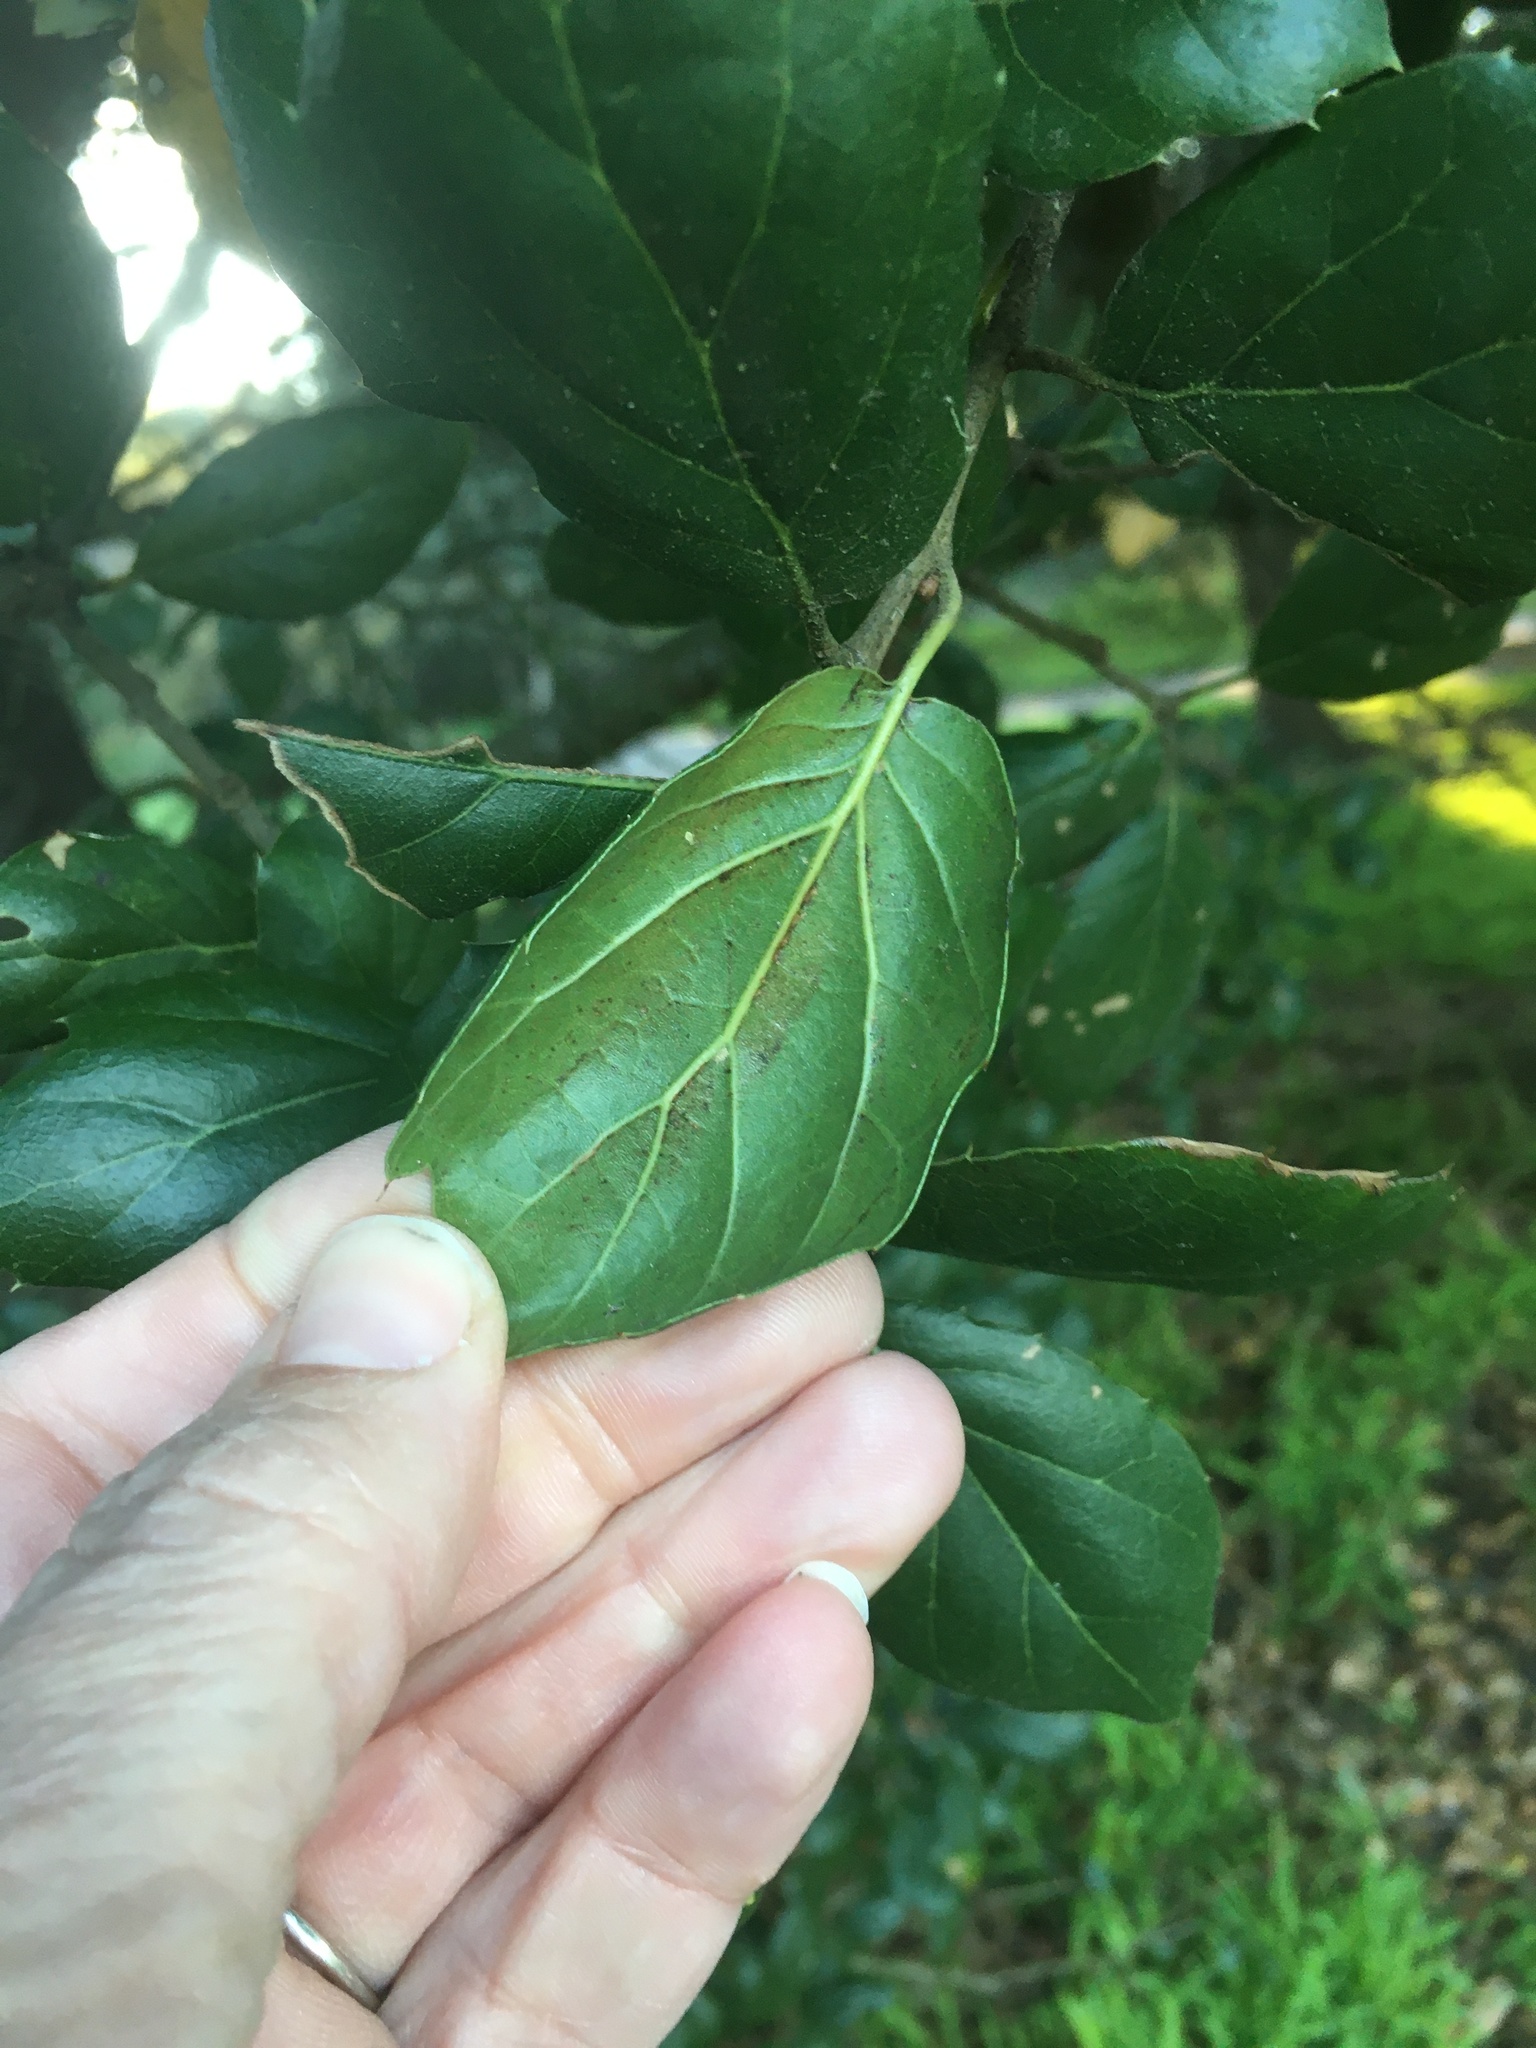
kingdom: Plantae
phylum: Tracheophyta
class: Magnoliopsida
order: Fagales
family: Fagaceae
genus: Quercus
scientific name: Quercus agrifolia
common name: California live oak
